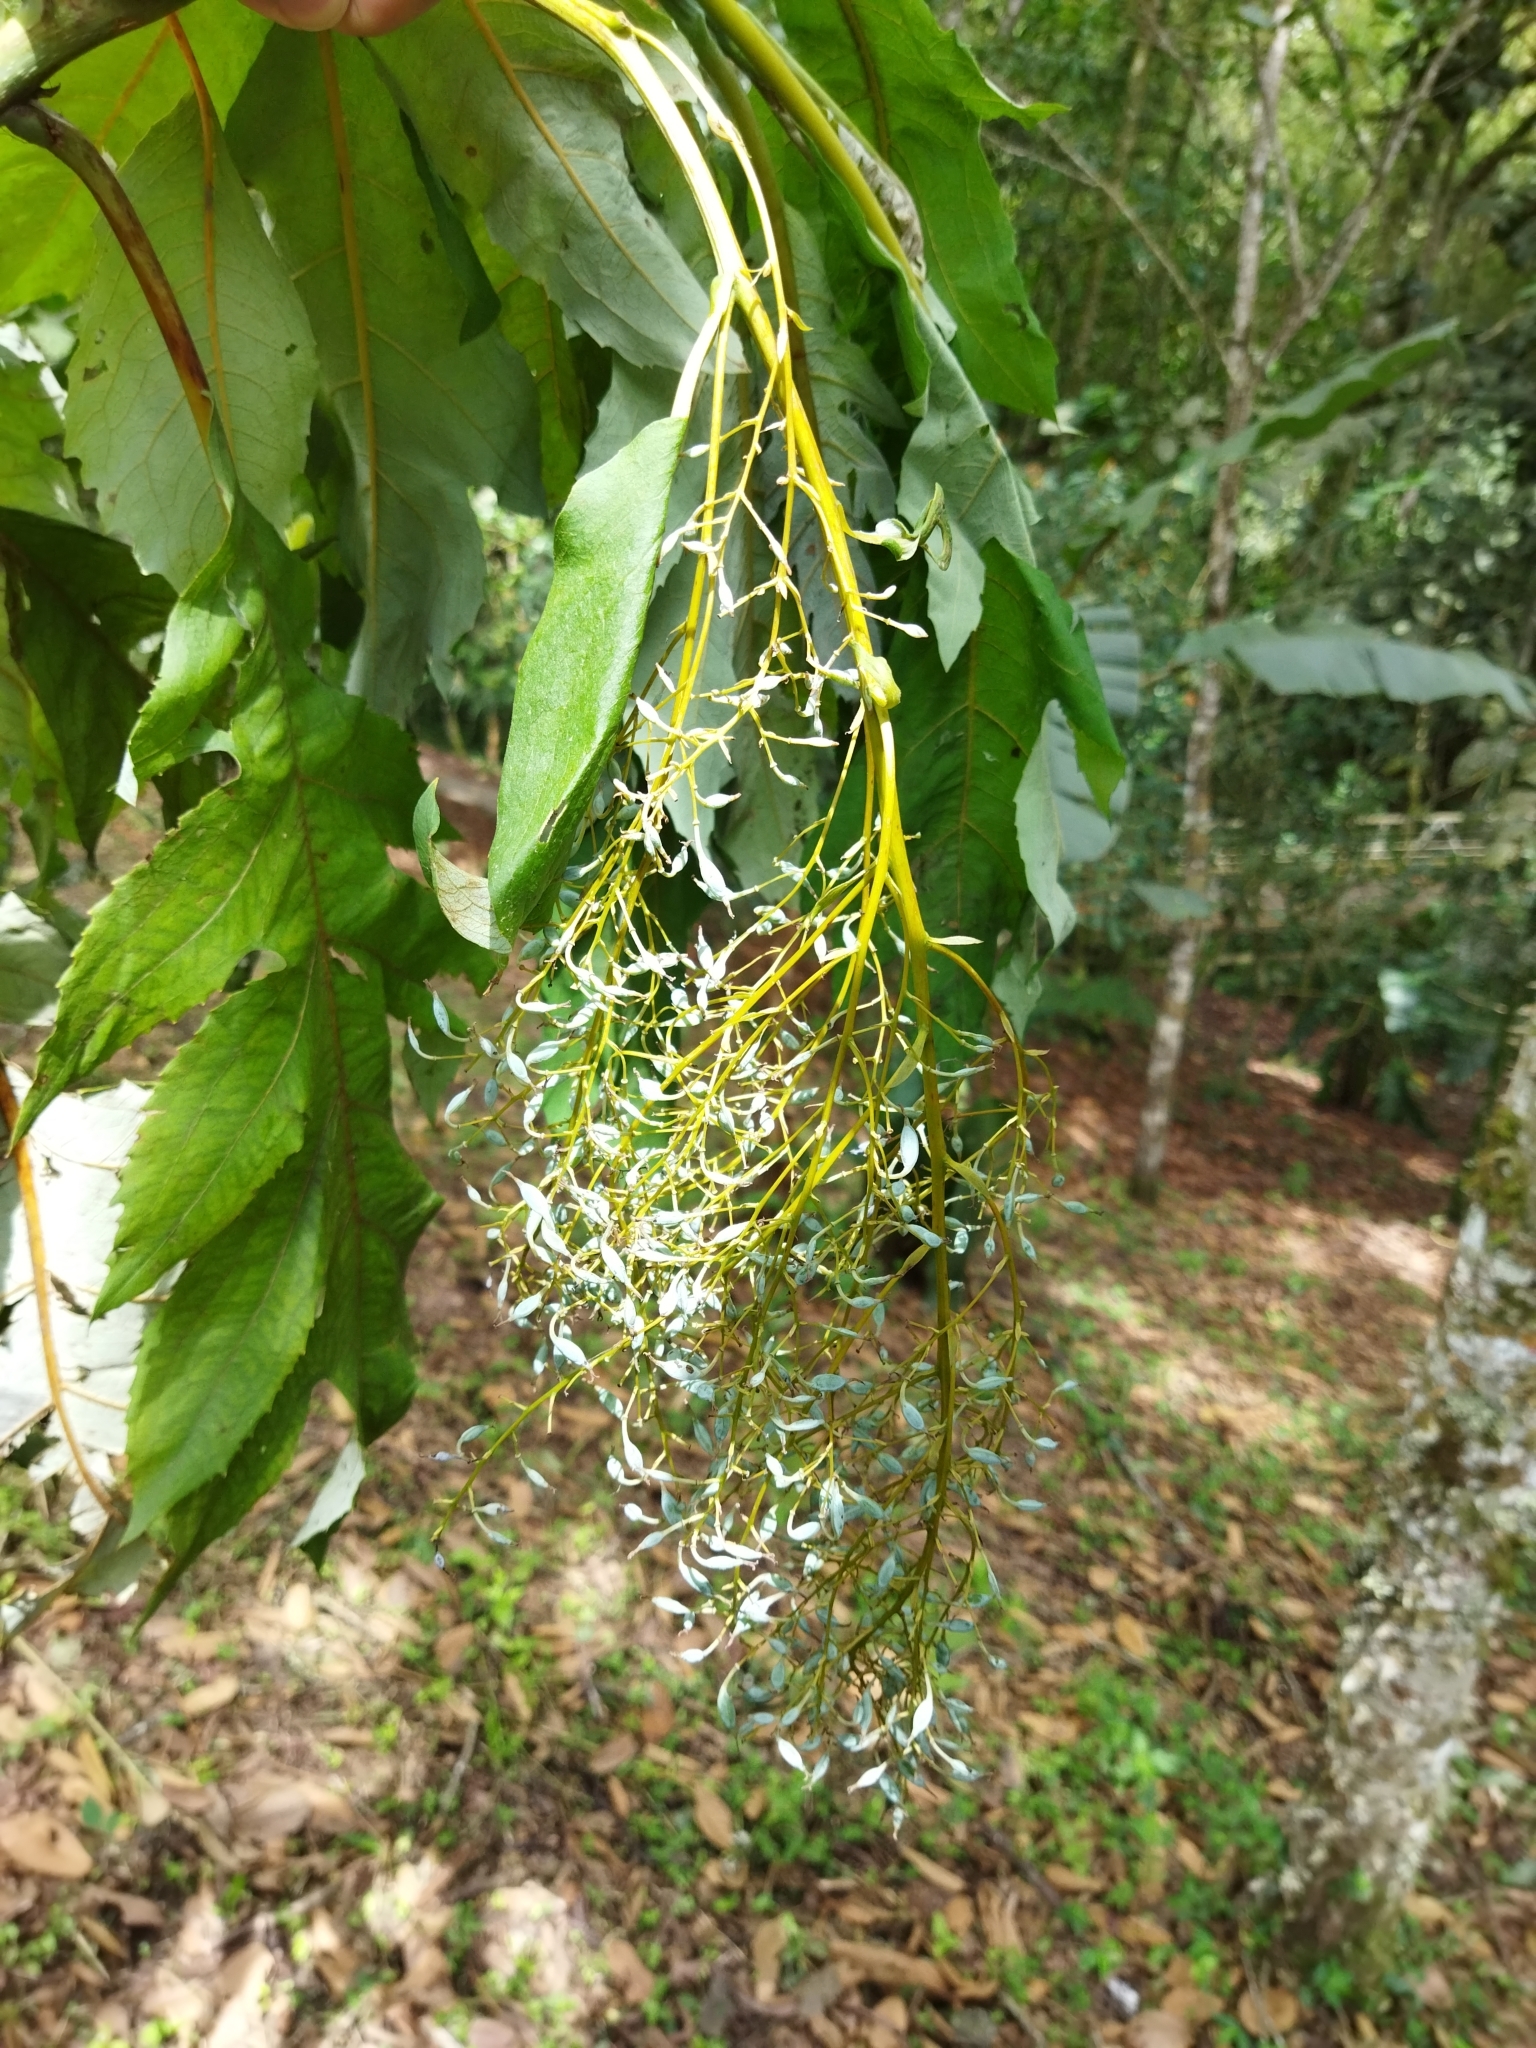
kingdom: Plantae
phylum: Tracheophyta
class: Magnoliopsida
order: Ranunculales
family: Papaveraceae
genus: Bocconia
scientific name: Bocconia frutescens
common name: Tree poppy
